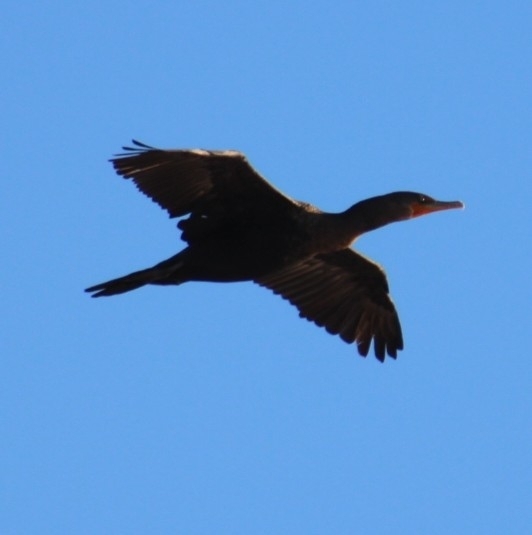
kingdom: Animalia
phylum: Chordata
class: Aves
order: Suliformes
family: Phalacrocoracidae
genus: Phalacrocorax
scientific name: Phalacrocorax auritus
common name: Double-crested cormorant
